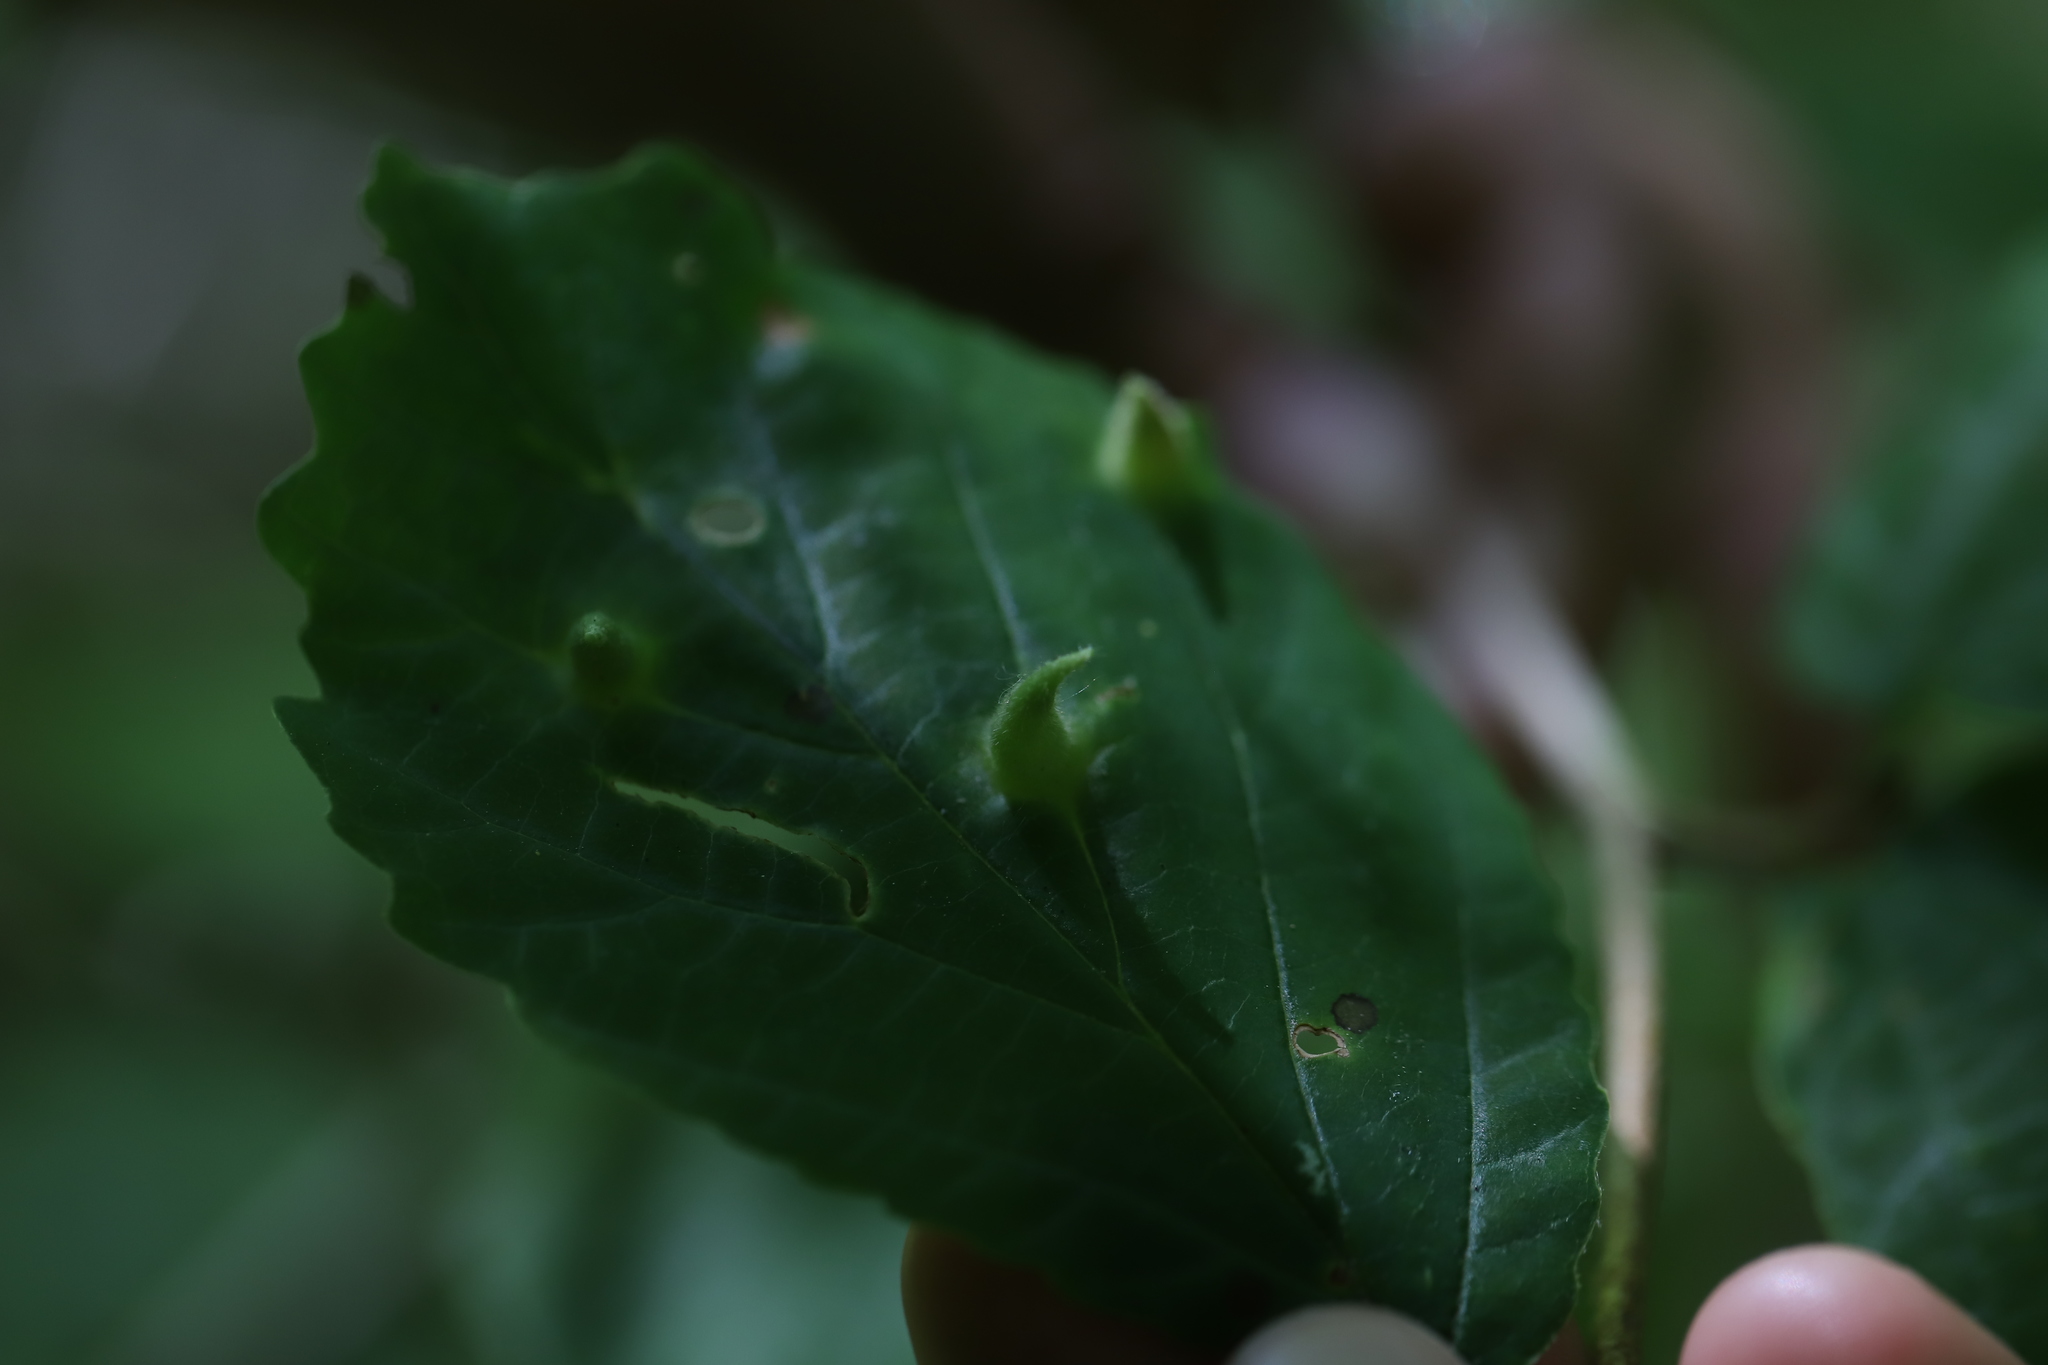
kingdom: Animalia
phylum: Arthropoda
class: Insecta
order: Hemiptera
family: Aphididae
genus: Hormaphis
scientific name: Hormaphis hamamelidis
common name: Witch-hazel cone gall aphid
